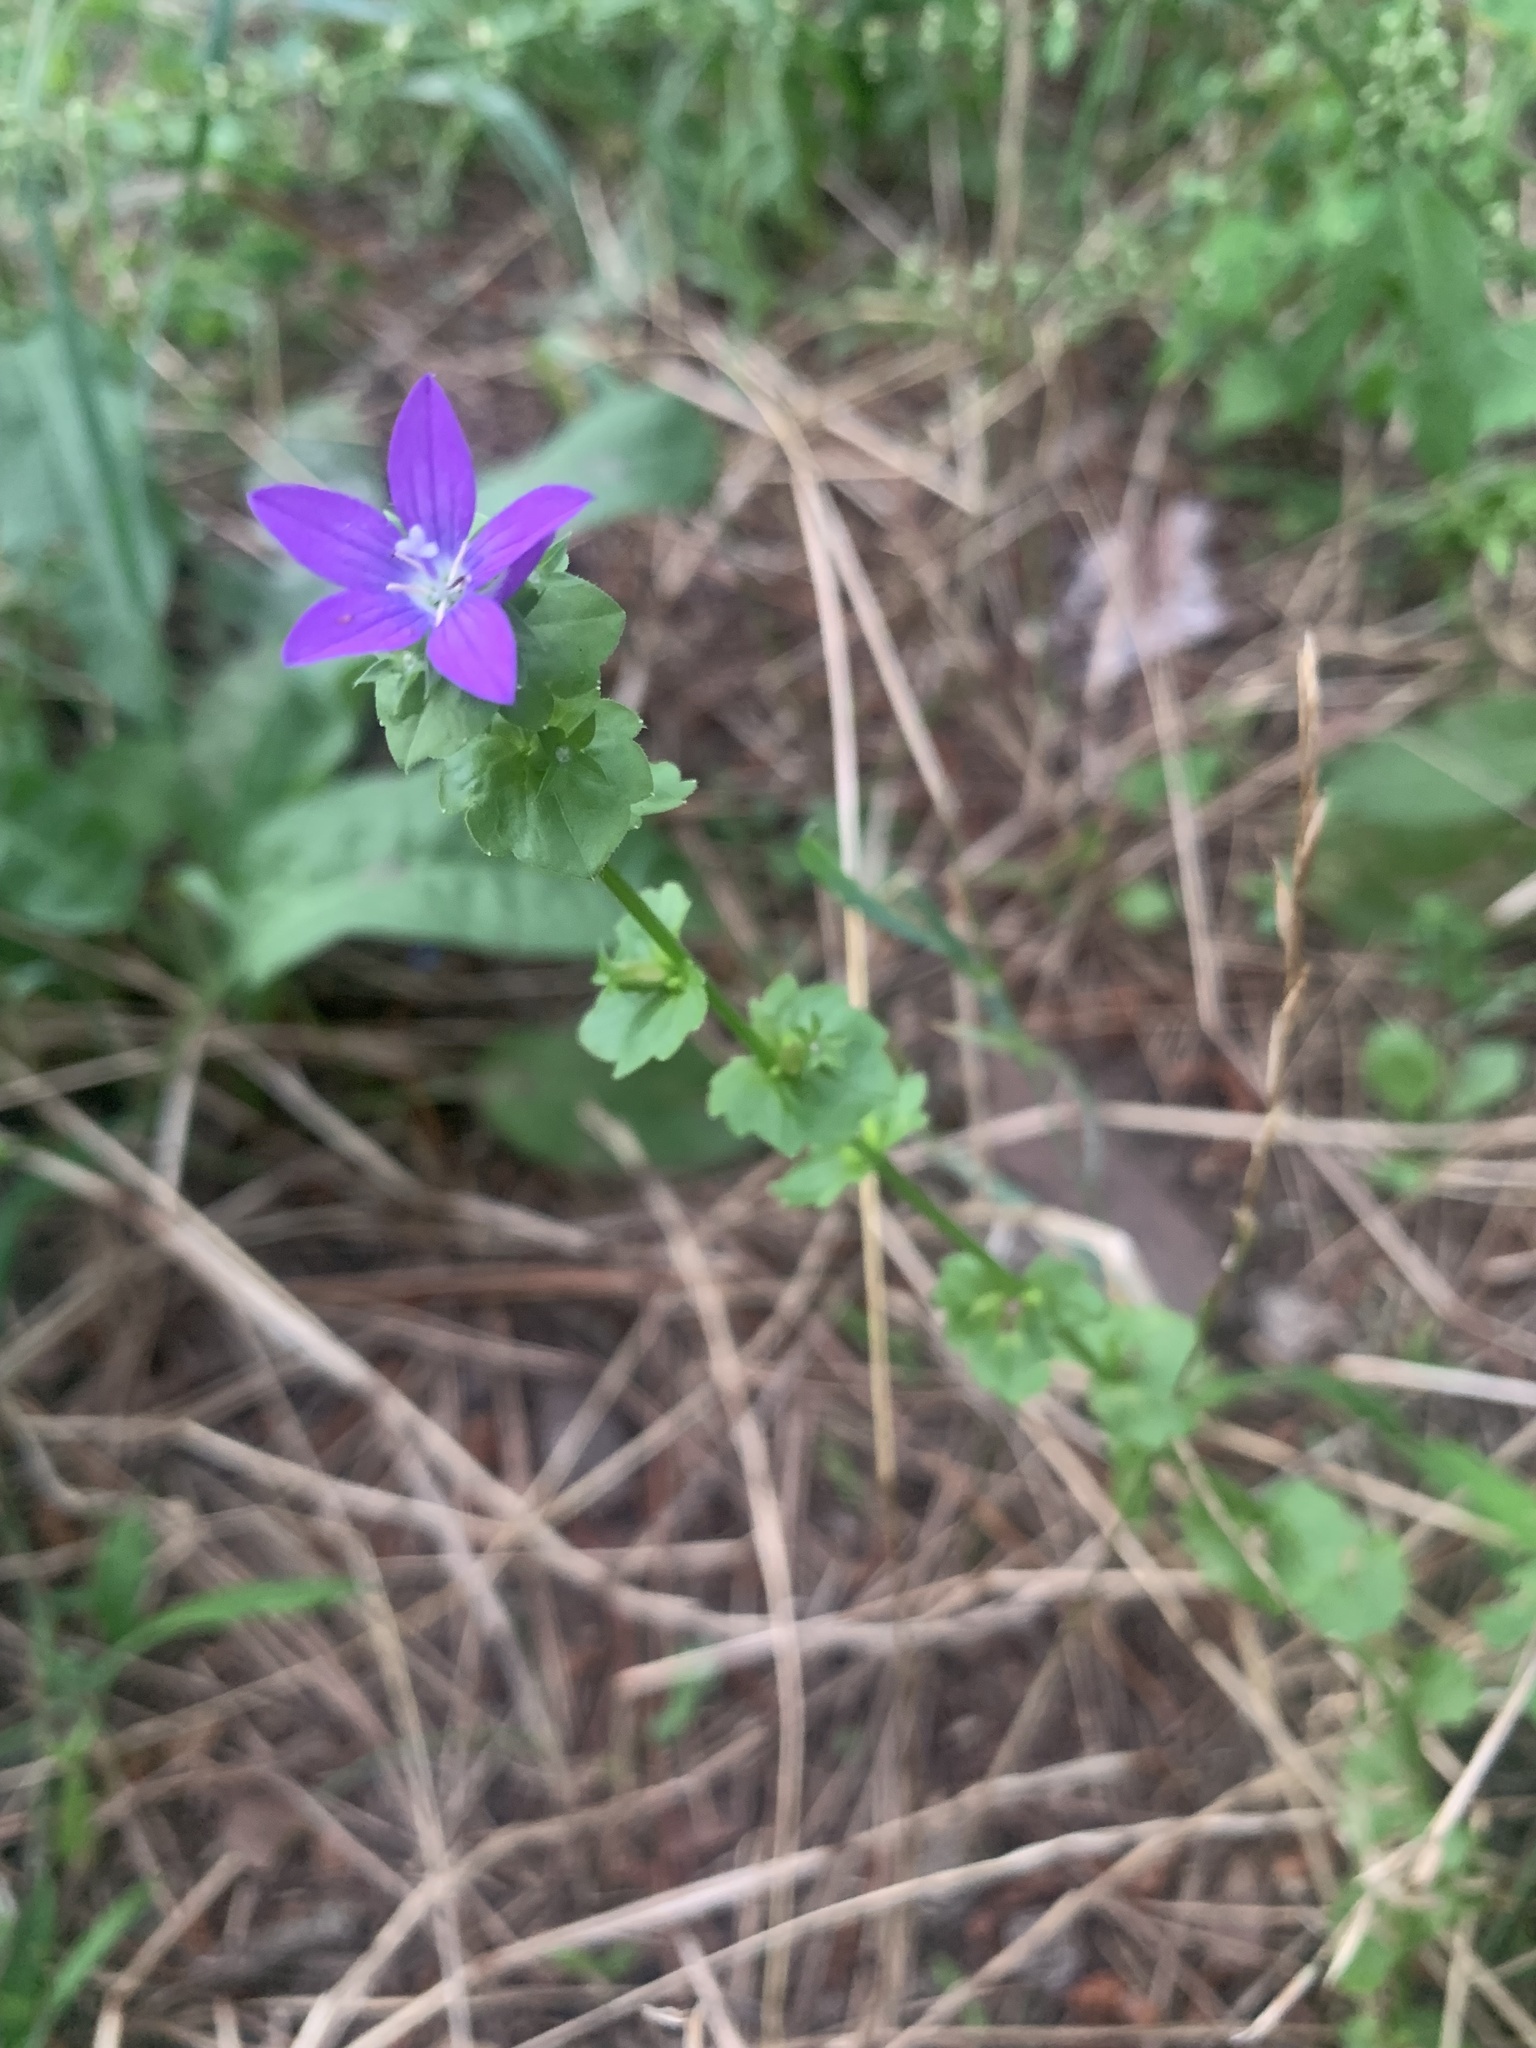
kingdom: Plantae
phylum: Tracheophyta
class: Magnoliopsida
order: Asterales
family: Campanulaceae
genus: Triodanis
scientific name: Triodanis perfoliata
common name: Clasping venus' looking-glass
